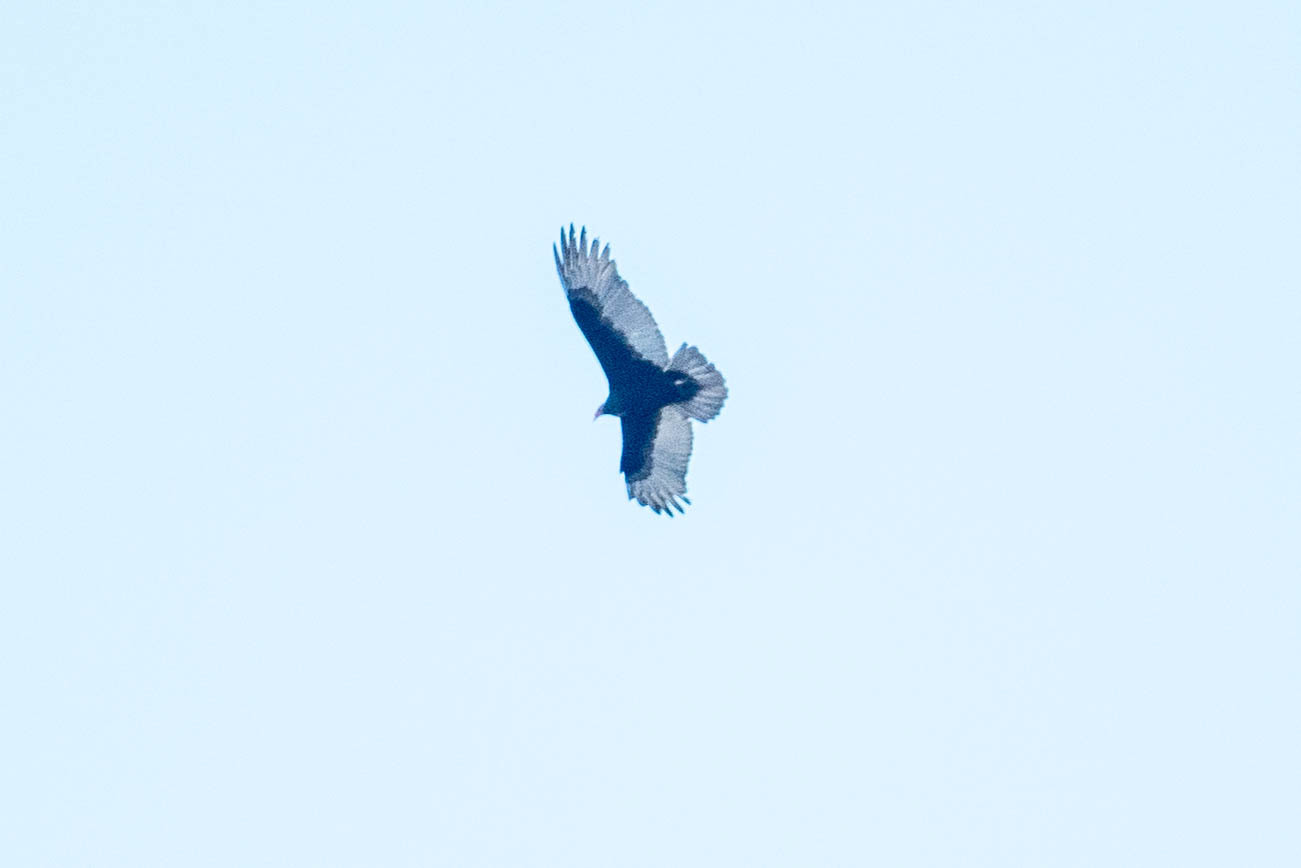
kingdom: Animalia
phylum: Chordata
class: Aves
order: Accipitriformes
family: Cathartidae
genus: Cathartes
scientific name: Cathartes aura
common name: Turkey vulture
